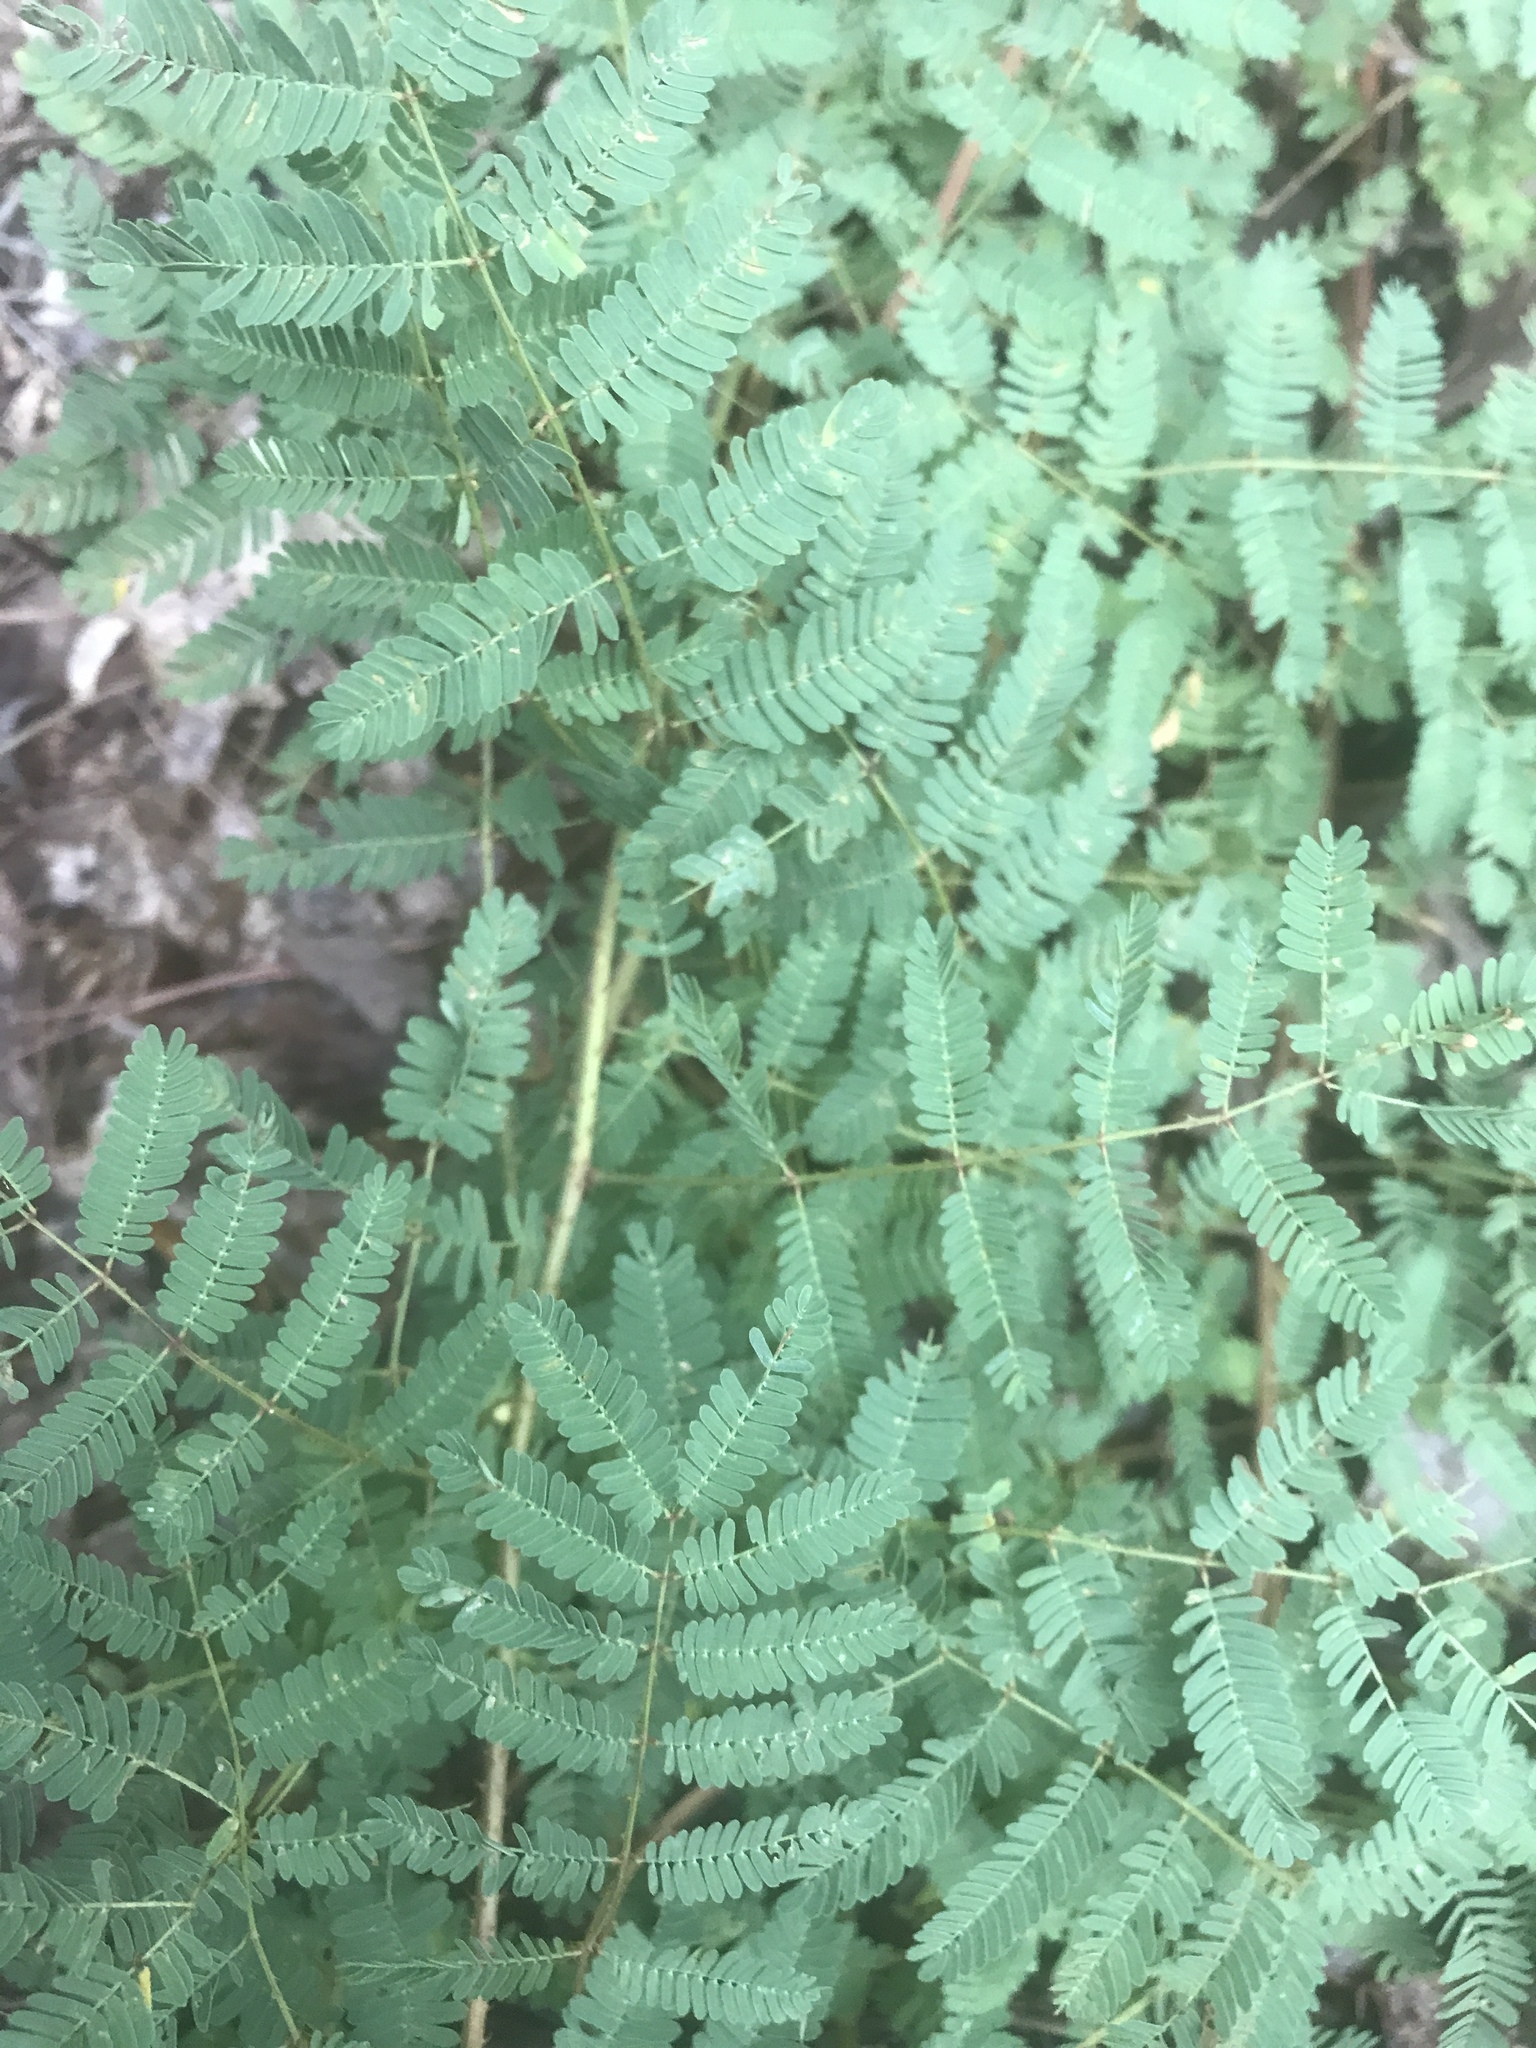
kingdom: Plantae
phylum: Tracheophyta
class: Magnoliopsida
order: Fabales
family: Fabaceae
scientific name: Fabaceae
